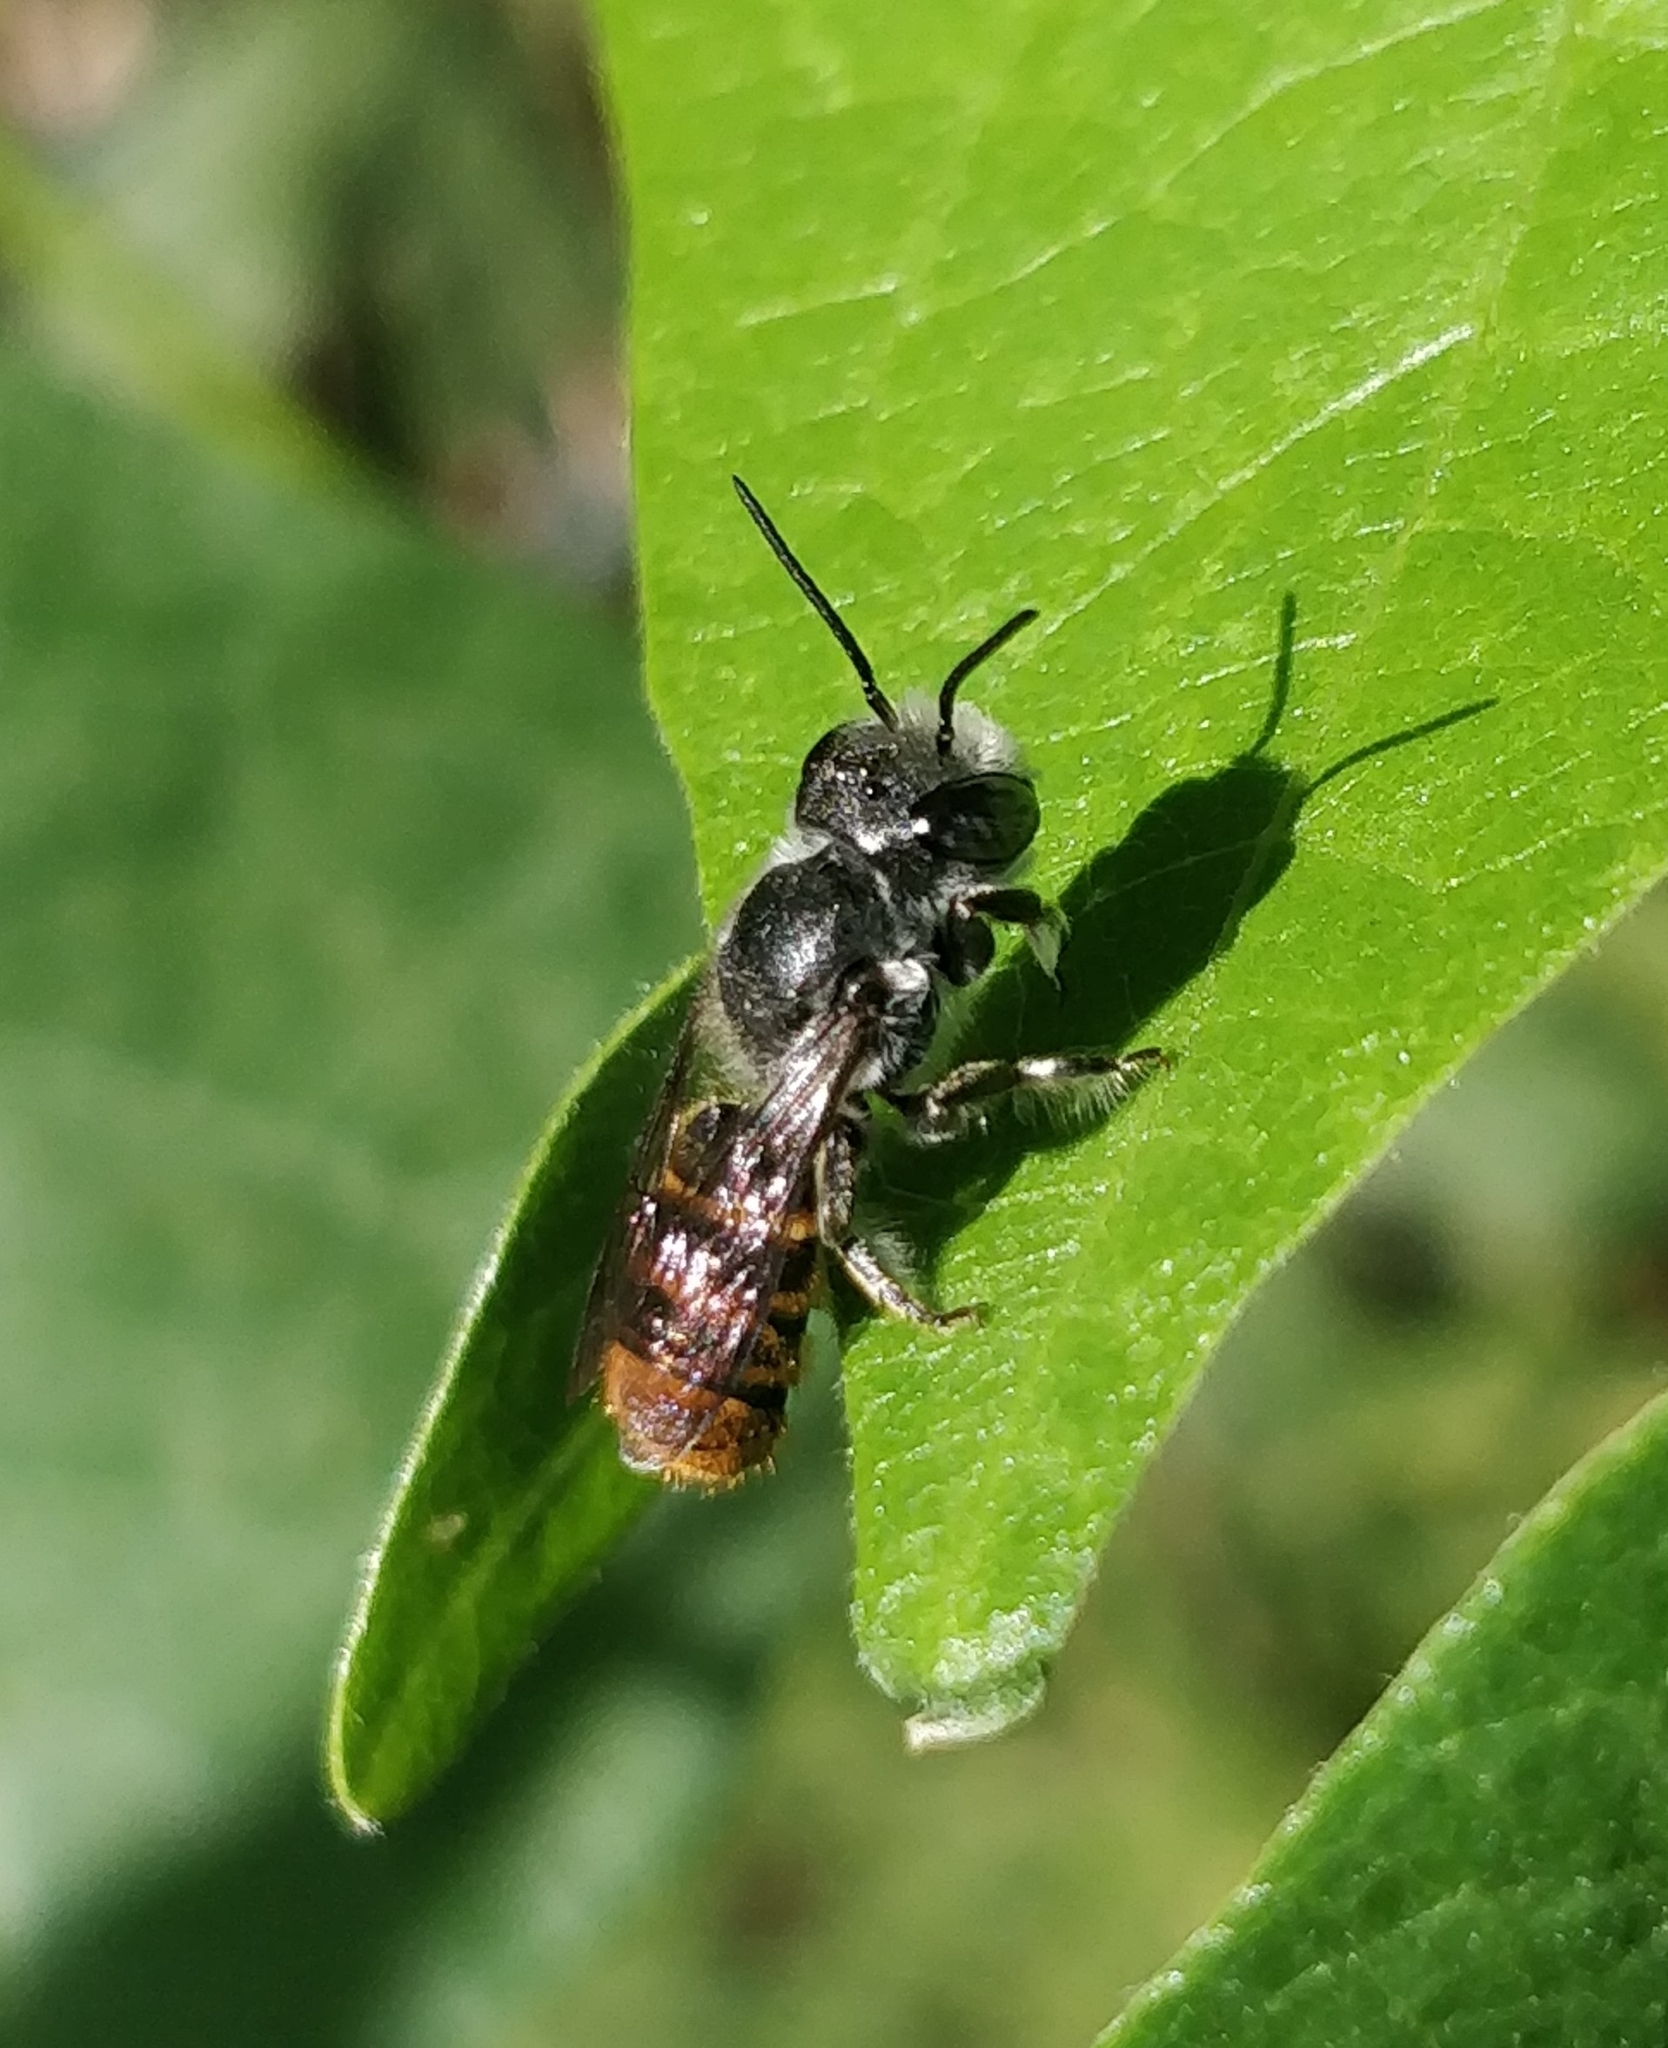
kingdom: Animalia
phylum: Arthropoda
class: Insecta
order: Hymenoptera
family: Megachilidae
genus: Megachile
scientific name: Megachile otomita
